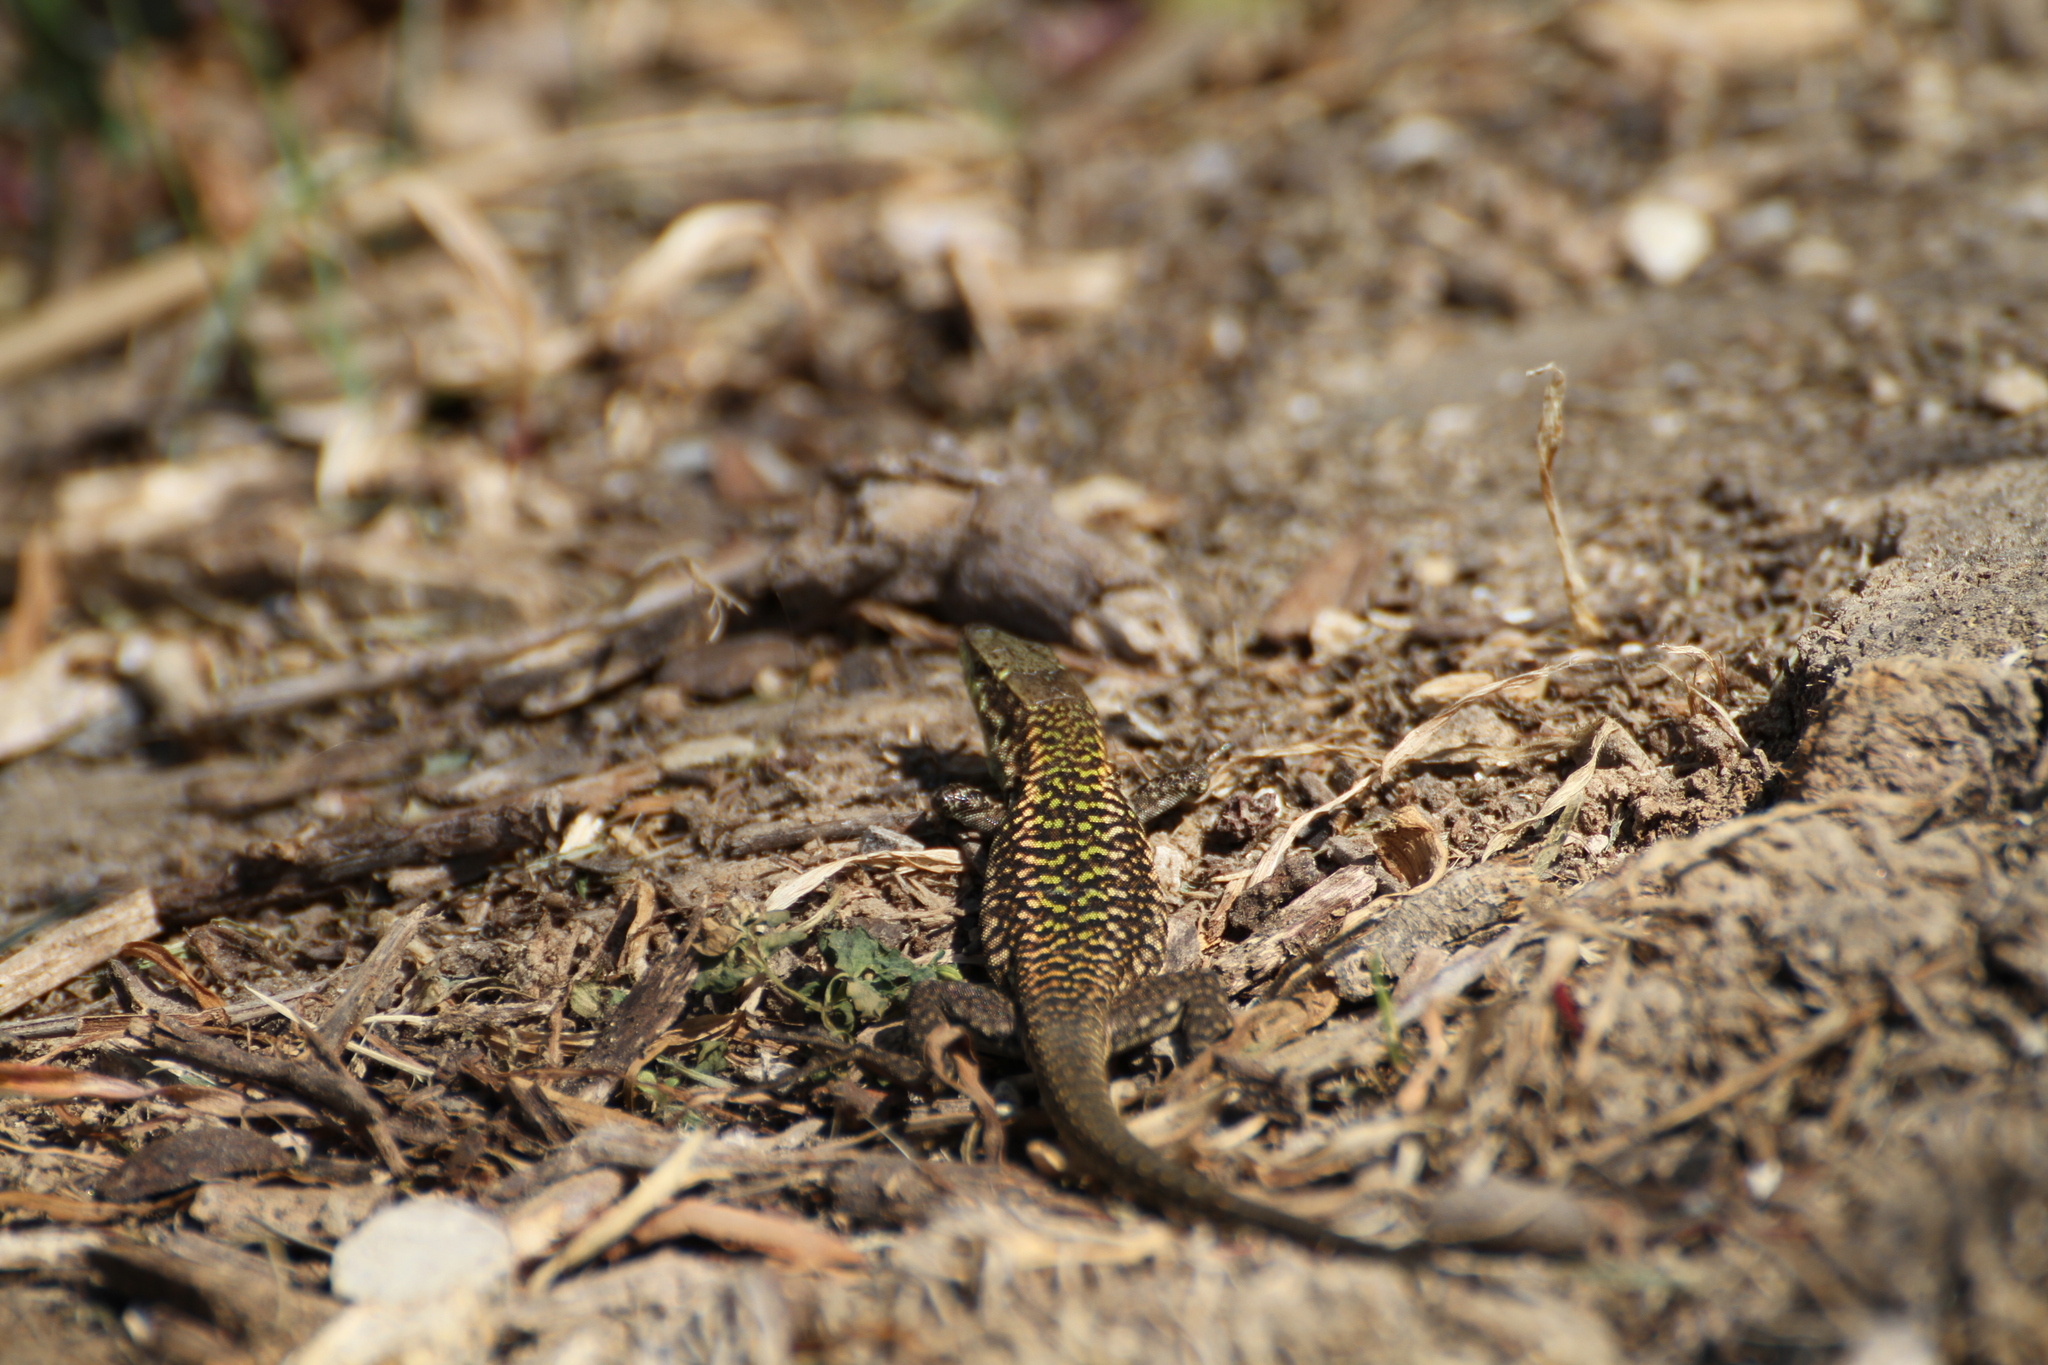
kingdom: Animalia
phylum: Chordata
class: Squamata
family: Lacertidae
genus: Podarcis
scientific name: Podarcis siculus
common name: Italian wall lizard
